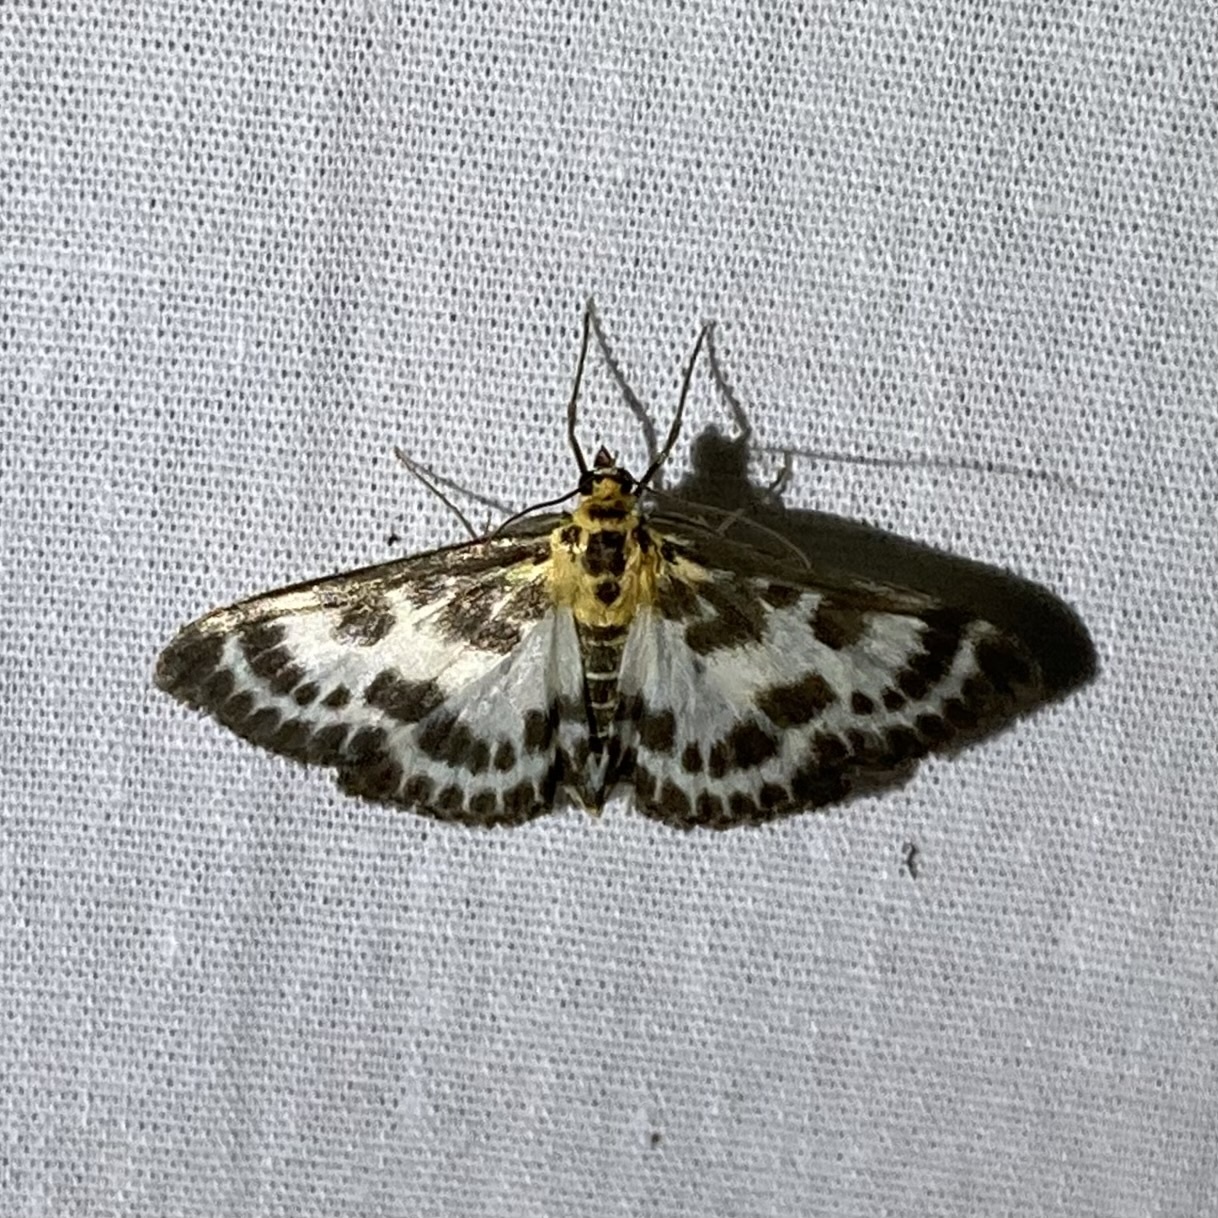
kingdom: Animalia
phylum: Arthropoda
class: Insecta
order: Lepidoptera
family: Crambidae
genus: Anania
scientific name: Anania hortulata
